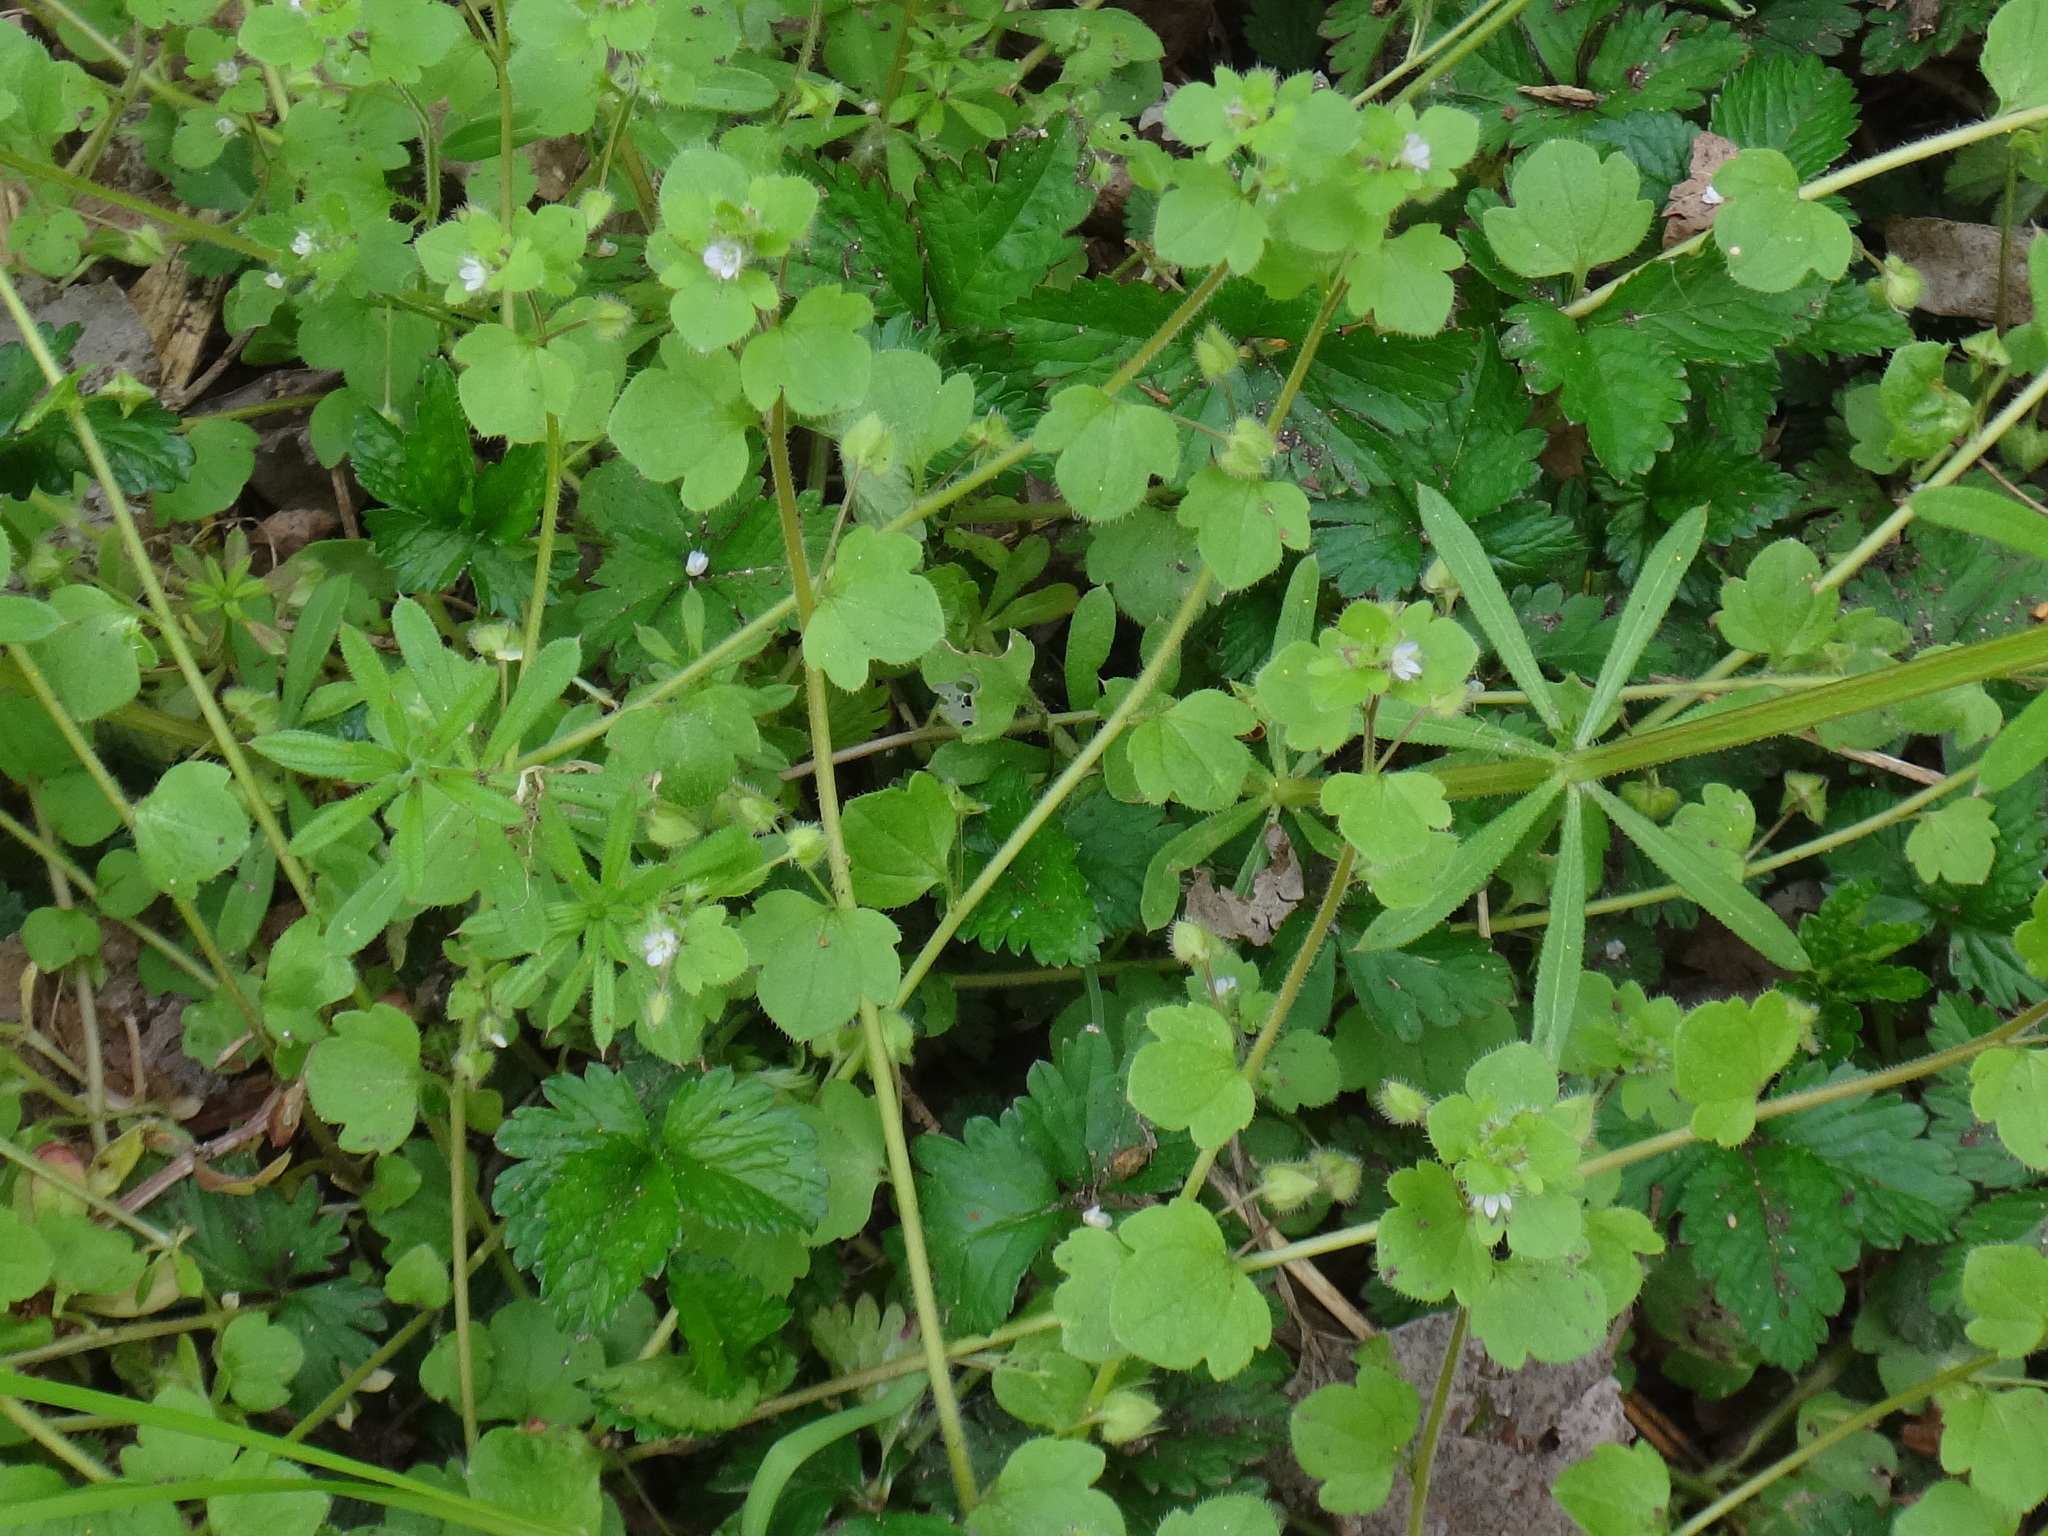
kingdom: Plantae
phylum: Tracheophyta
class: Magnoliopsida
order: Lamiales
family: Plantaginaceae
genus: Veronica
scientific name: Veronica sublobata
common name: False ivy-leaved speedwell
